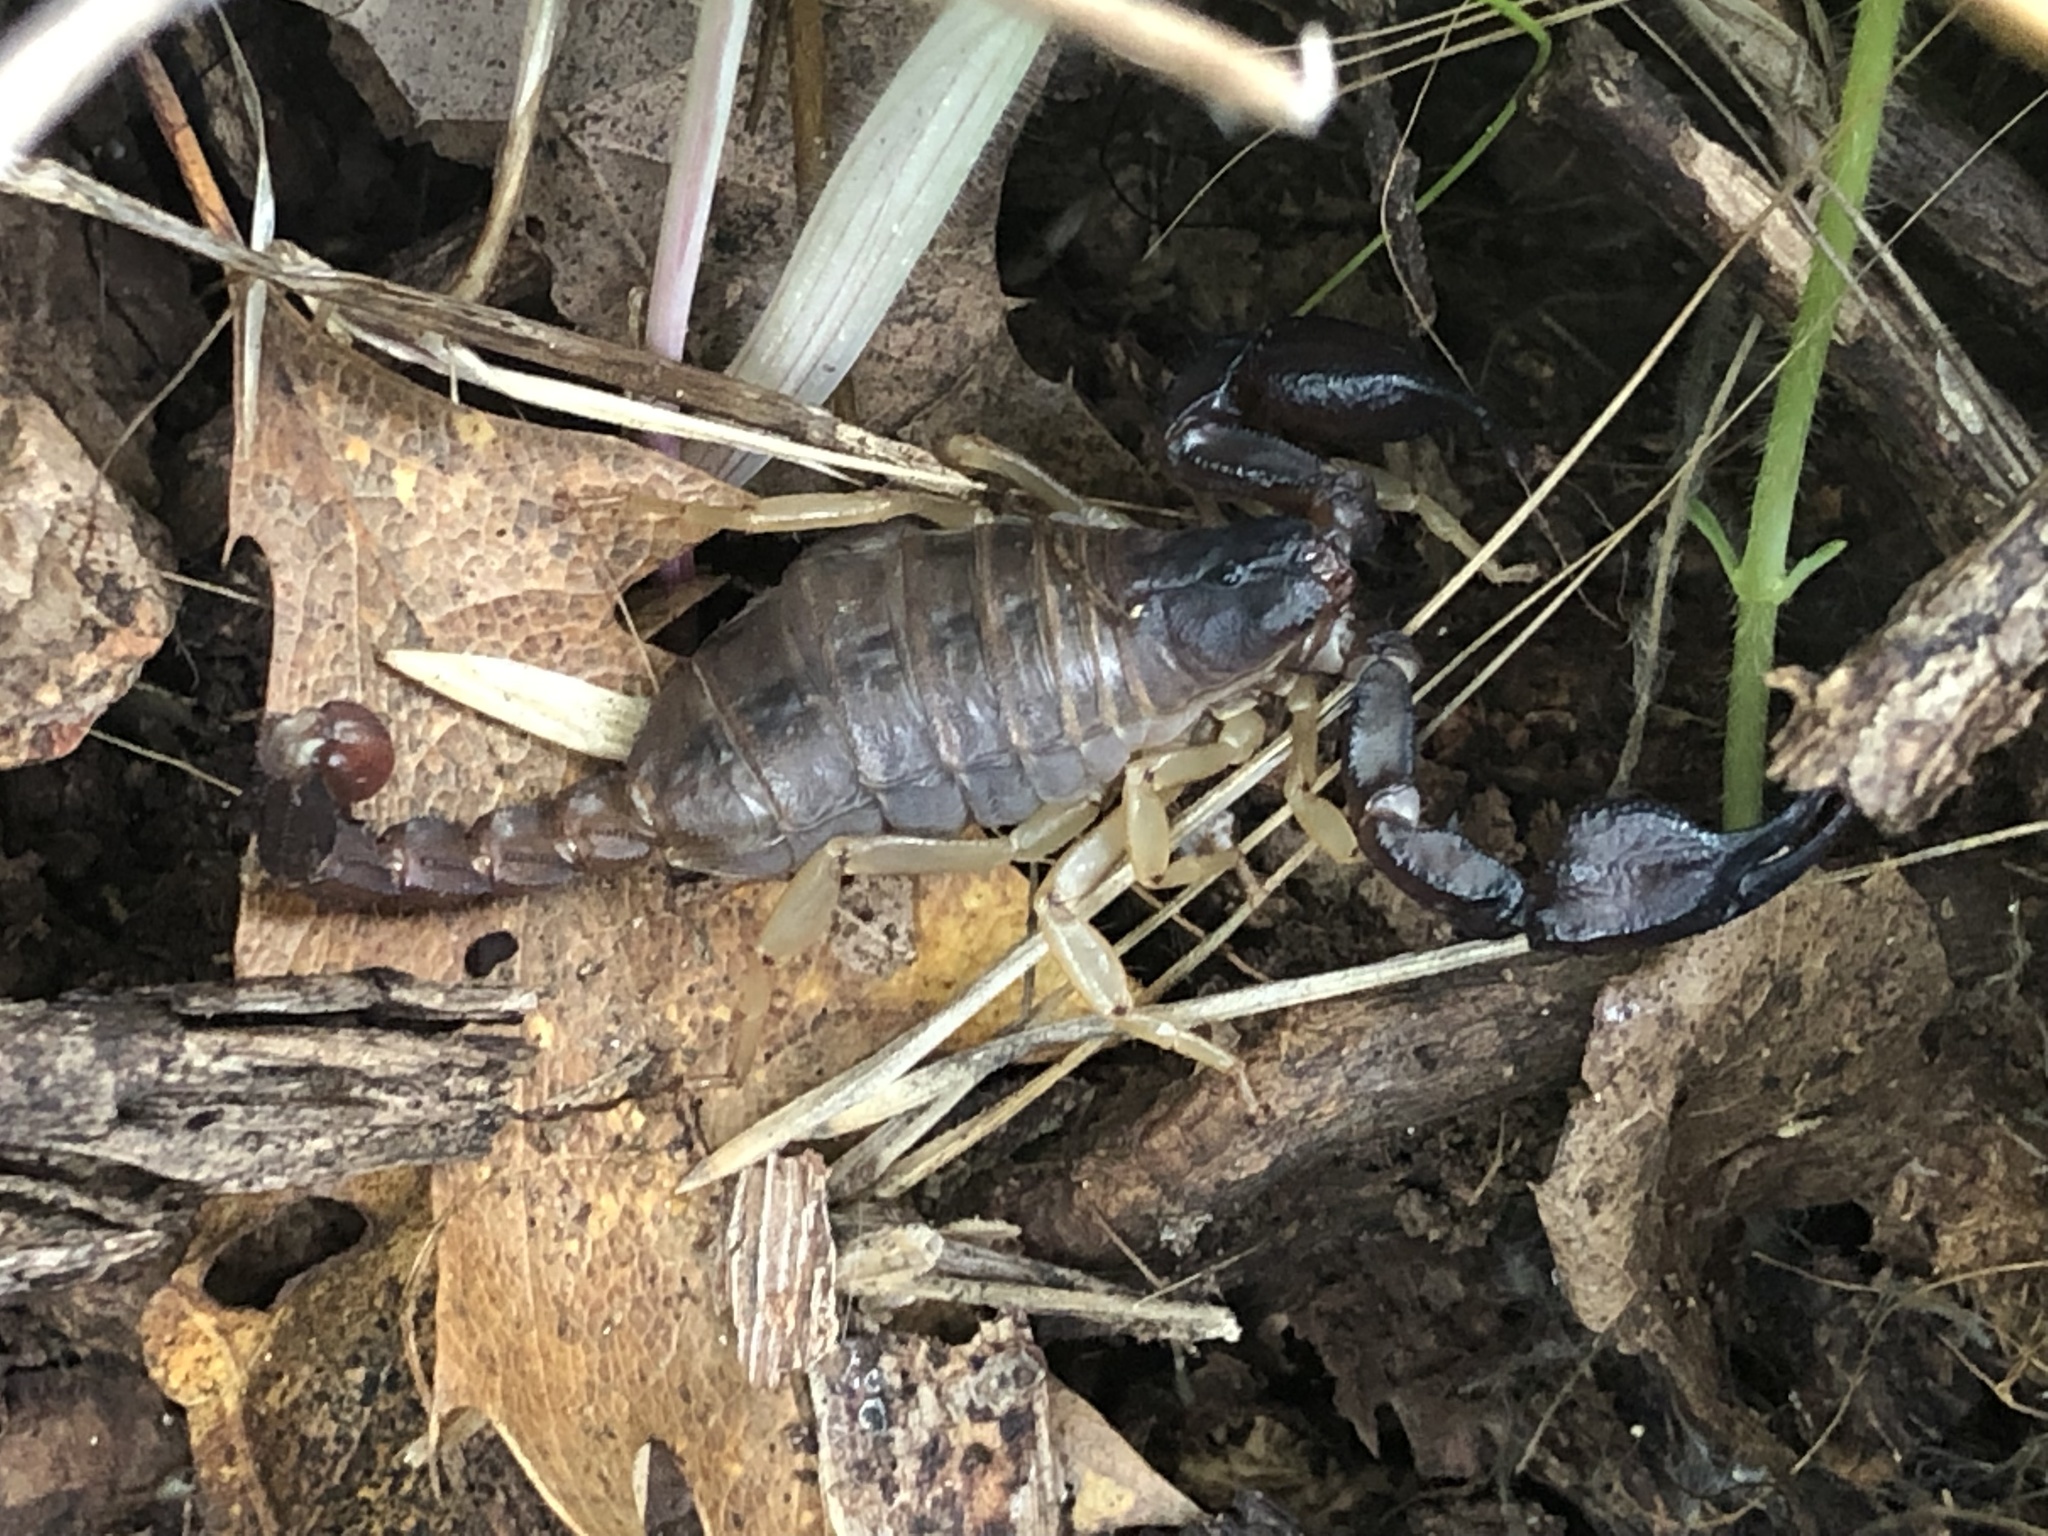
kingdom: Animalia
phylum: Arthropoda
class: Arachnida
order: Scorpiones
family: Chactidae
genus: Uroctonus
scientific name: Uroctonus mordax
